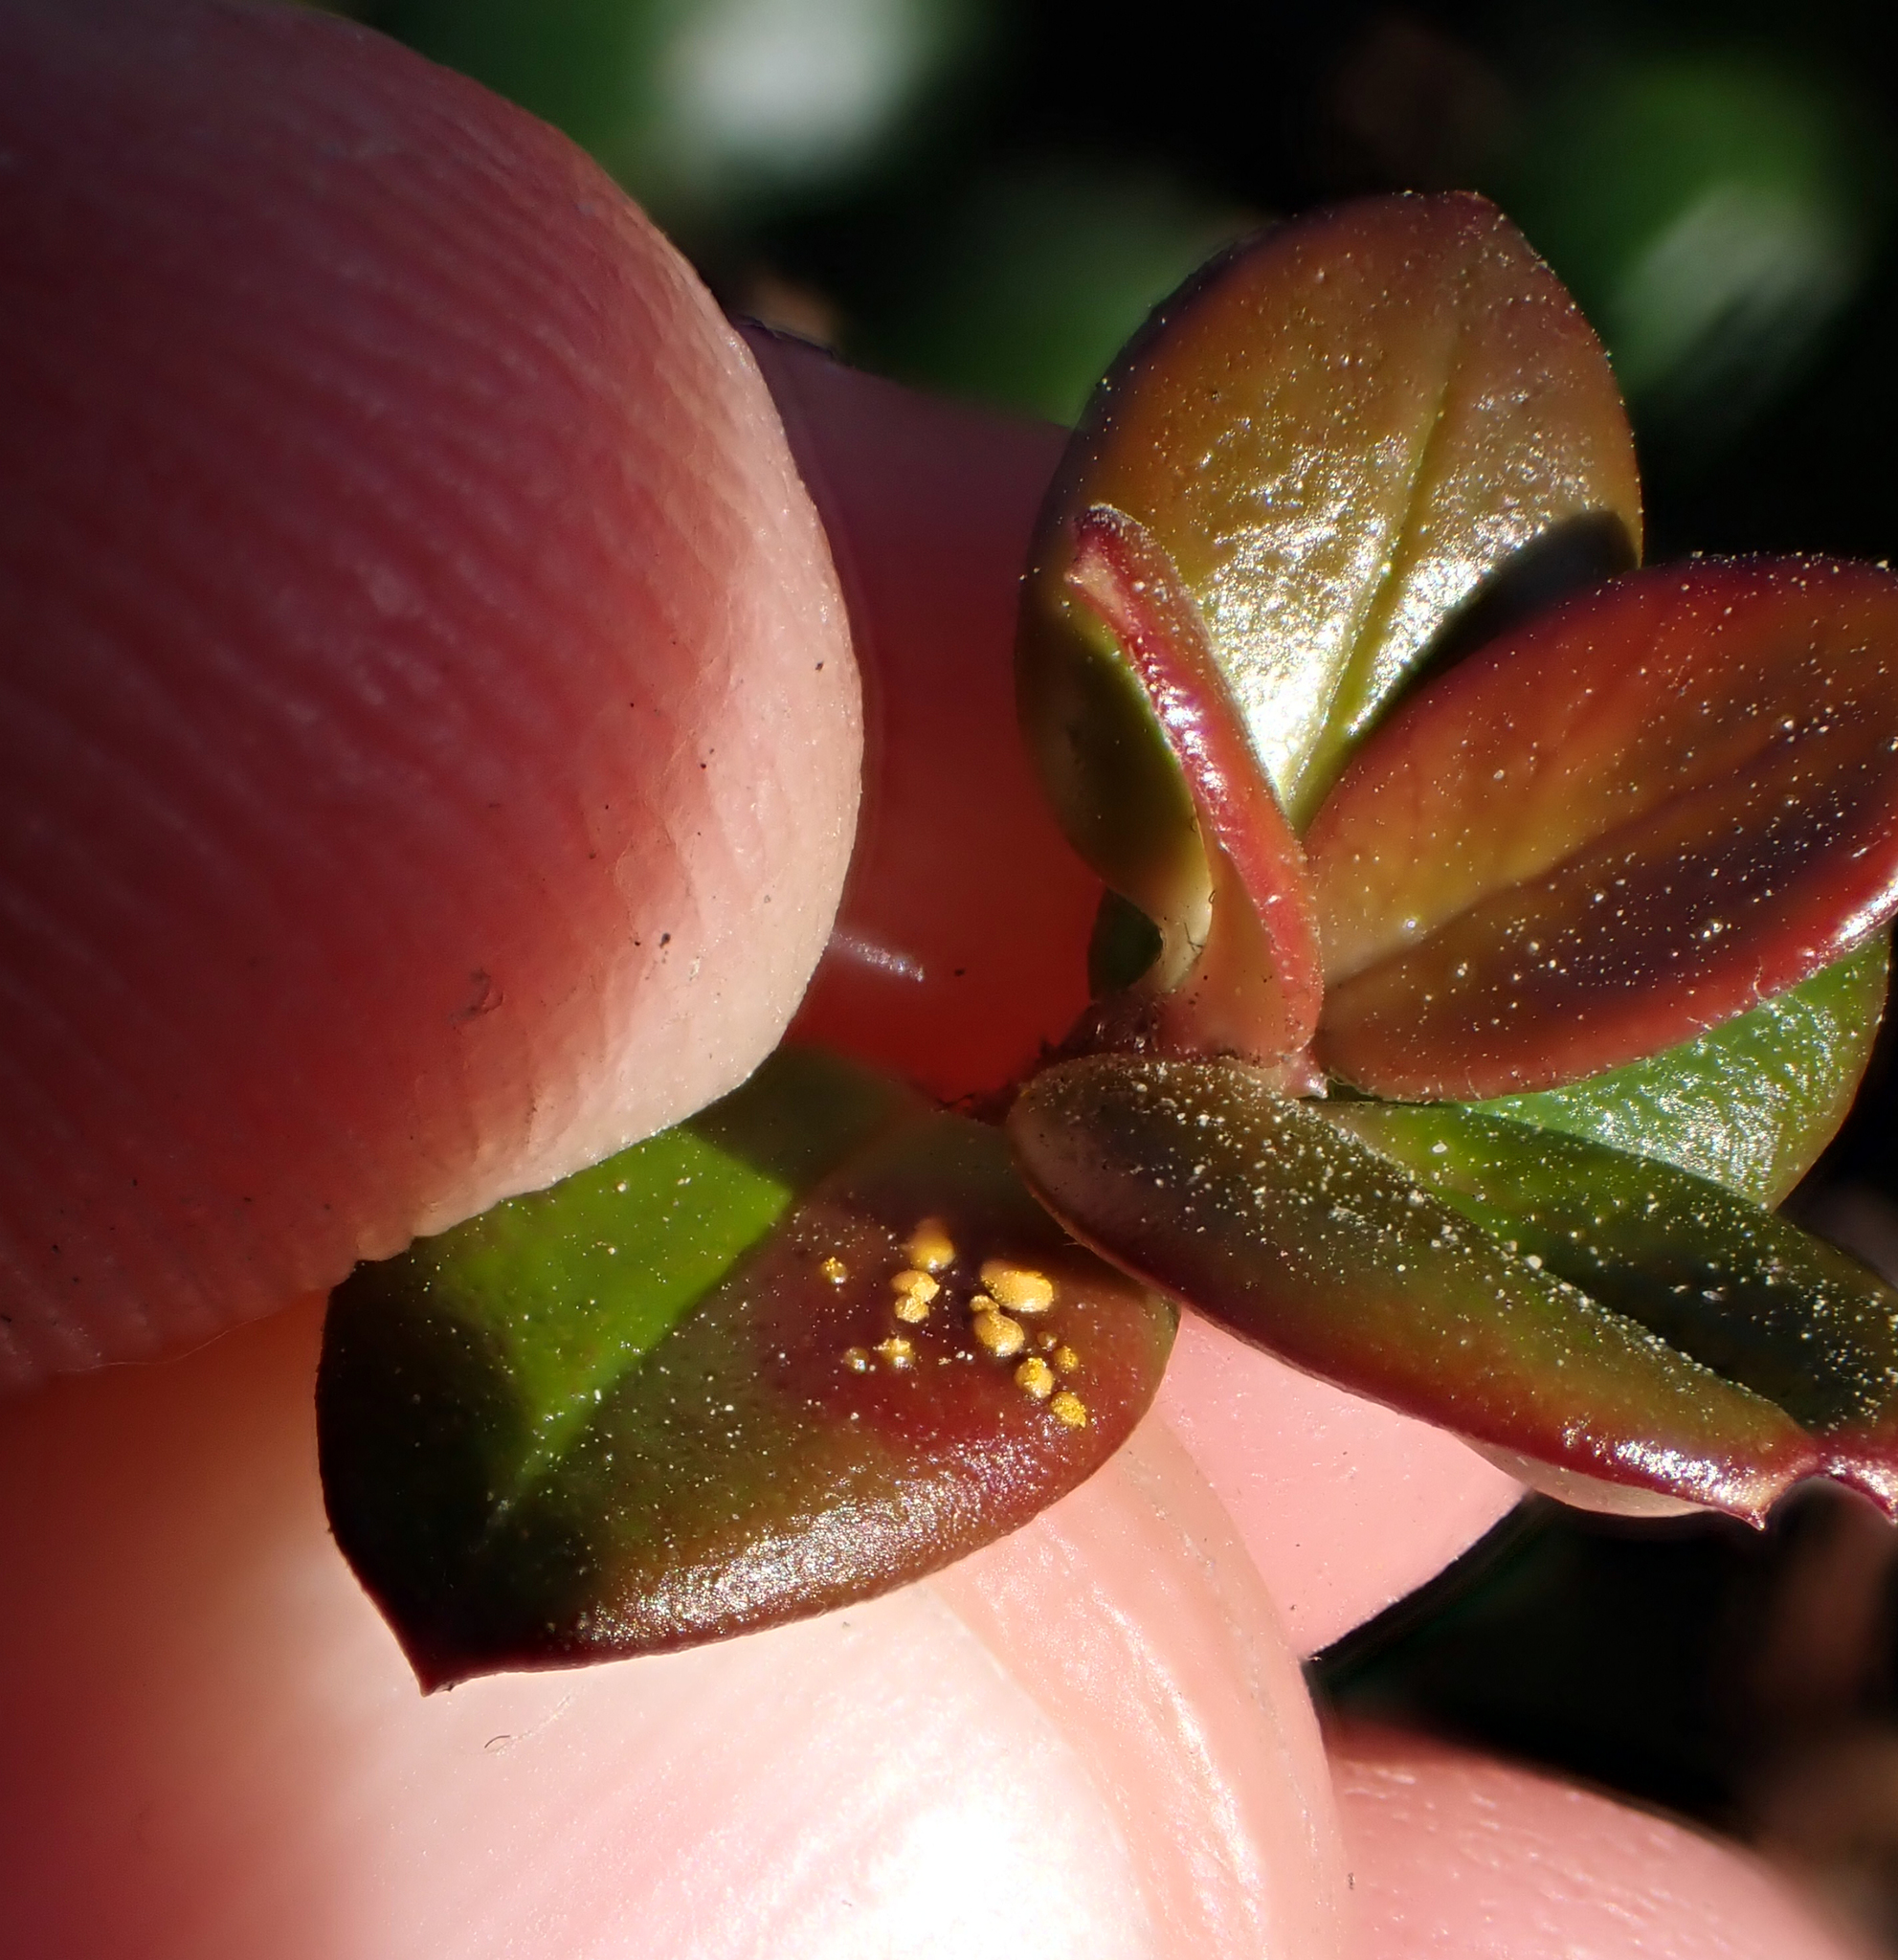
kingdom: Fungi
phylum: Basidiomycota
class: Pucciniomycetes
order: Pucciniales
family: Sphaerophragmiaceae
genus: Austropuccinia
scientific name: Austropuccinia psidii
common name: Myrtle rust
